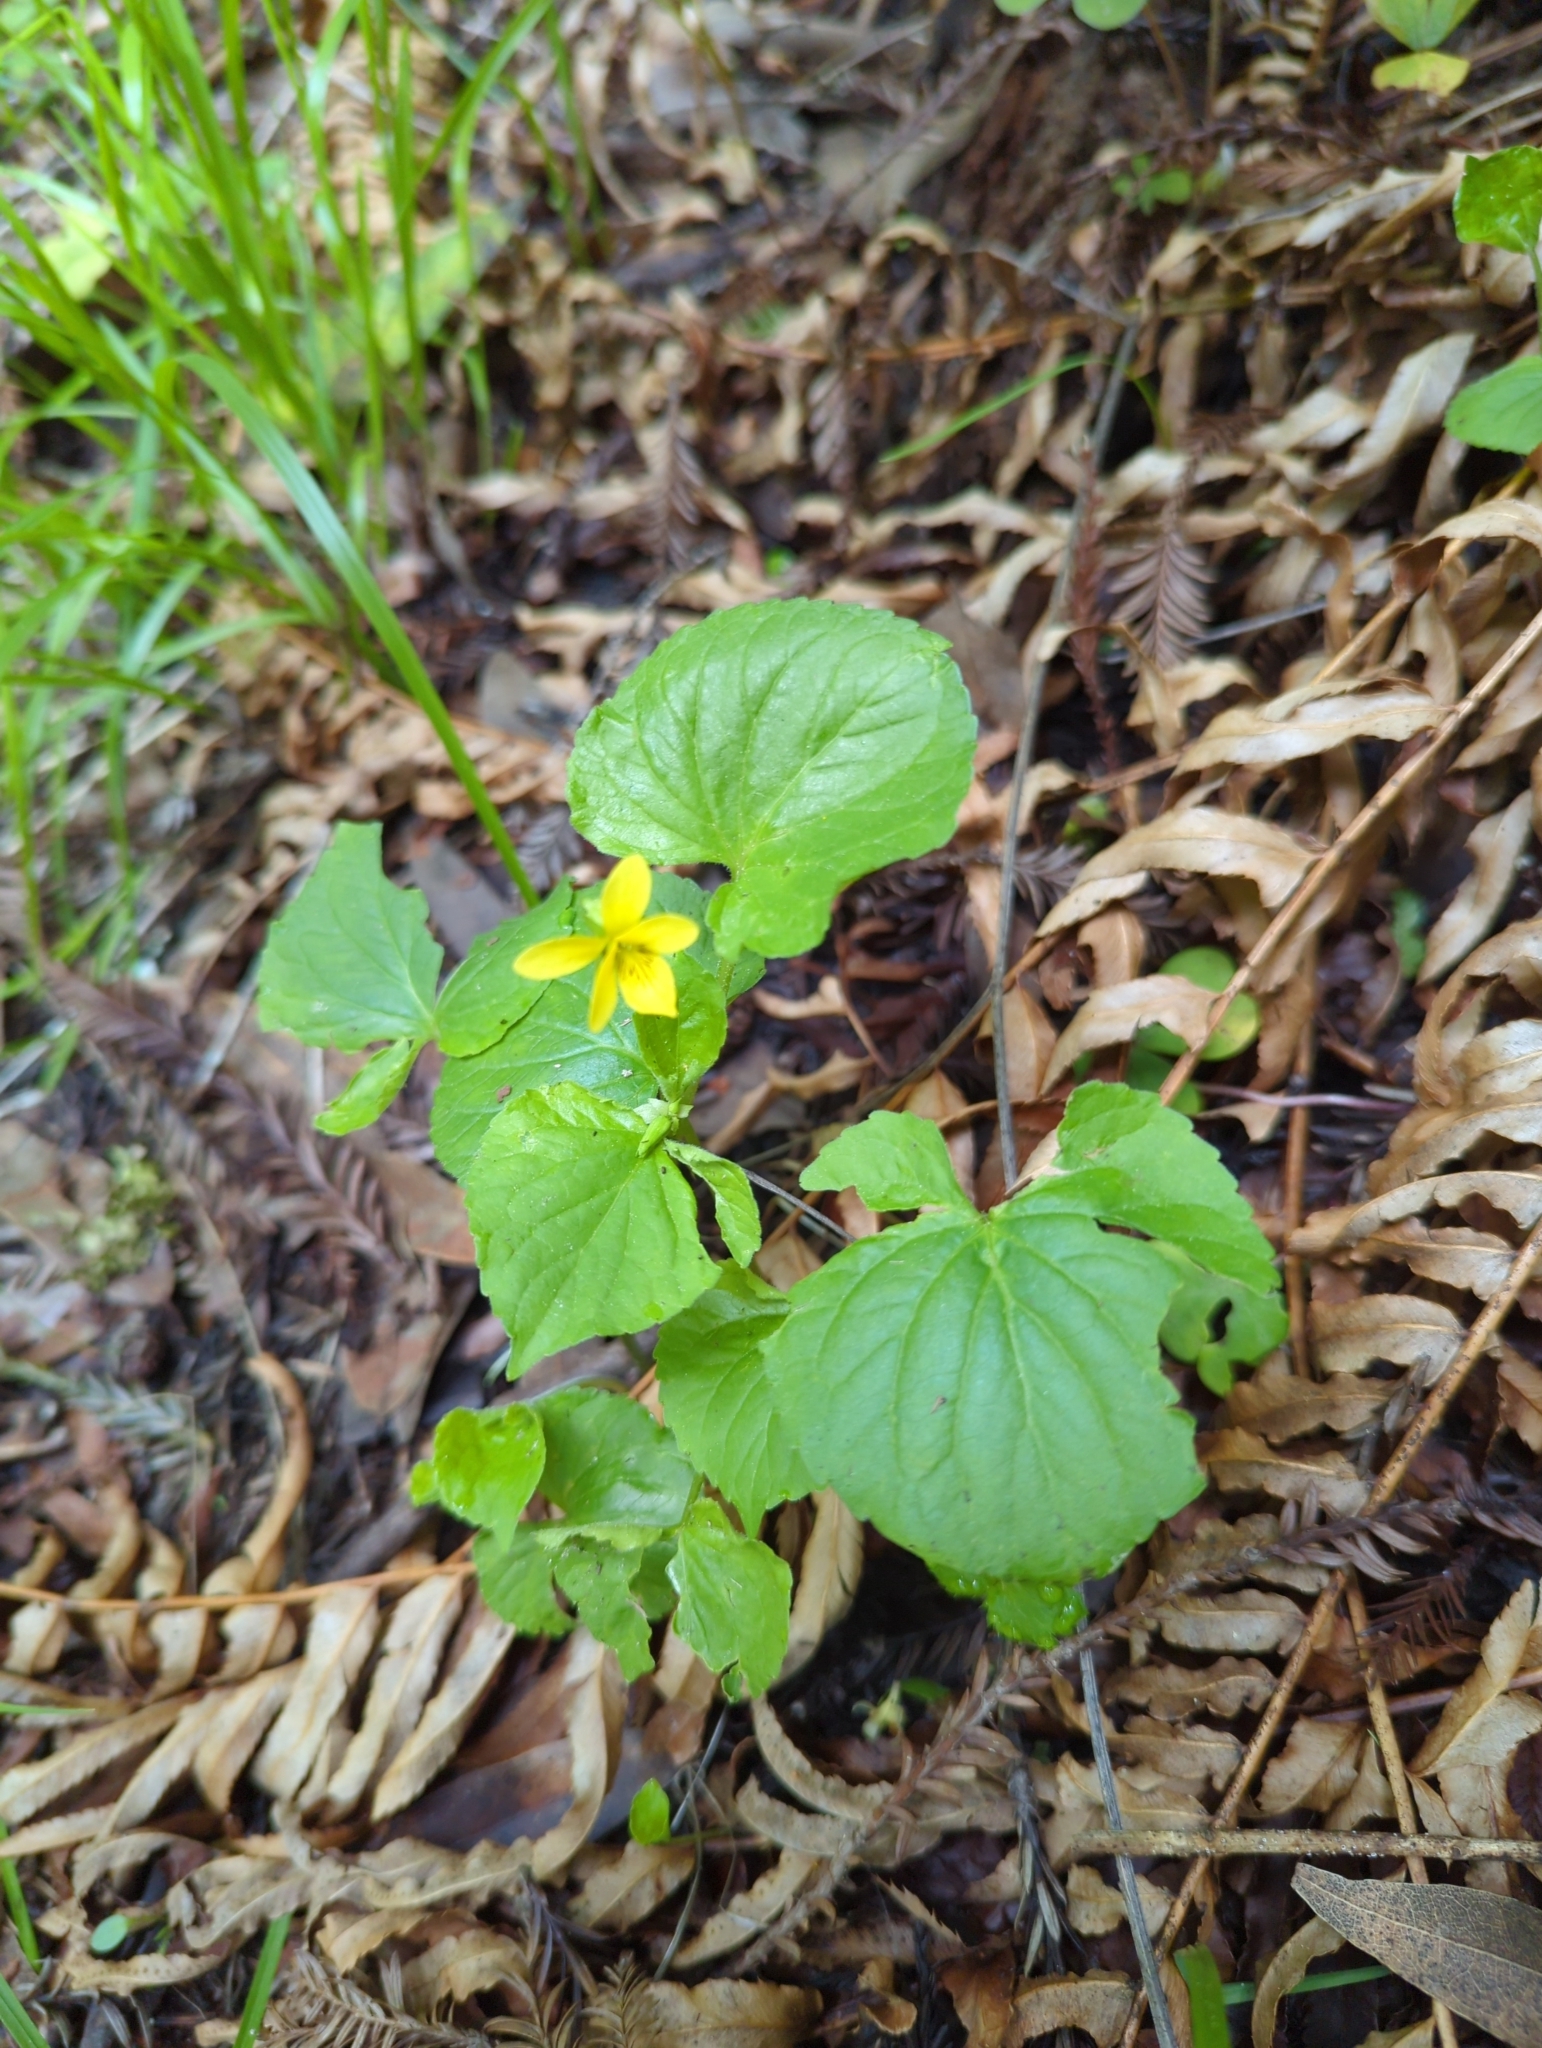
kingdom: Plantae
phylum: Tracheophyta
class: Magnoliopsida
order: Malpighiales
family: Violaceae
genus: Viola
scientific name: Viola glabella
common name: Stream violet
